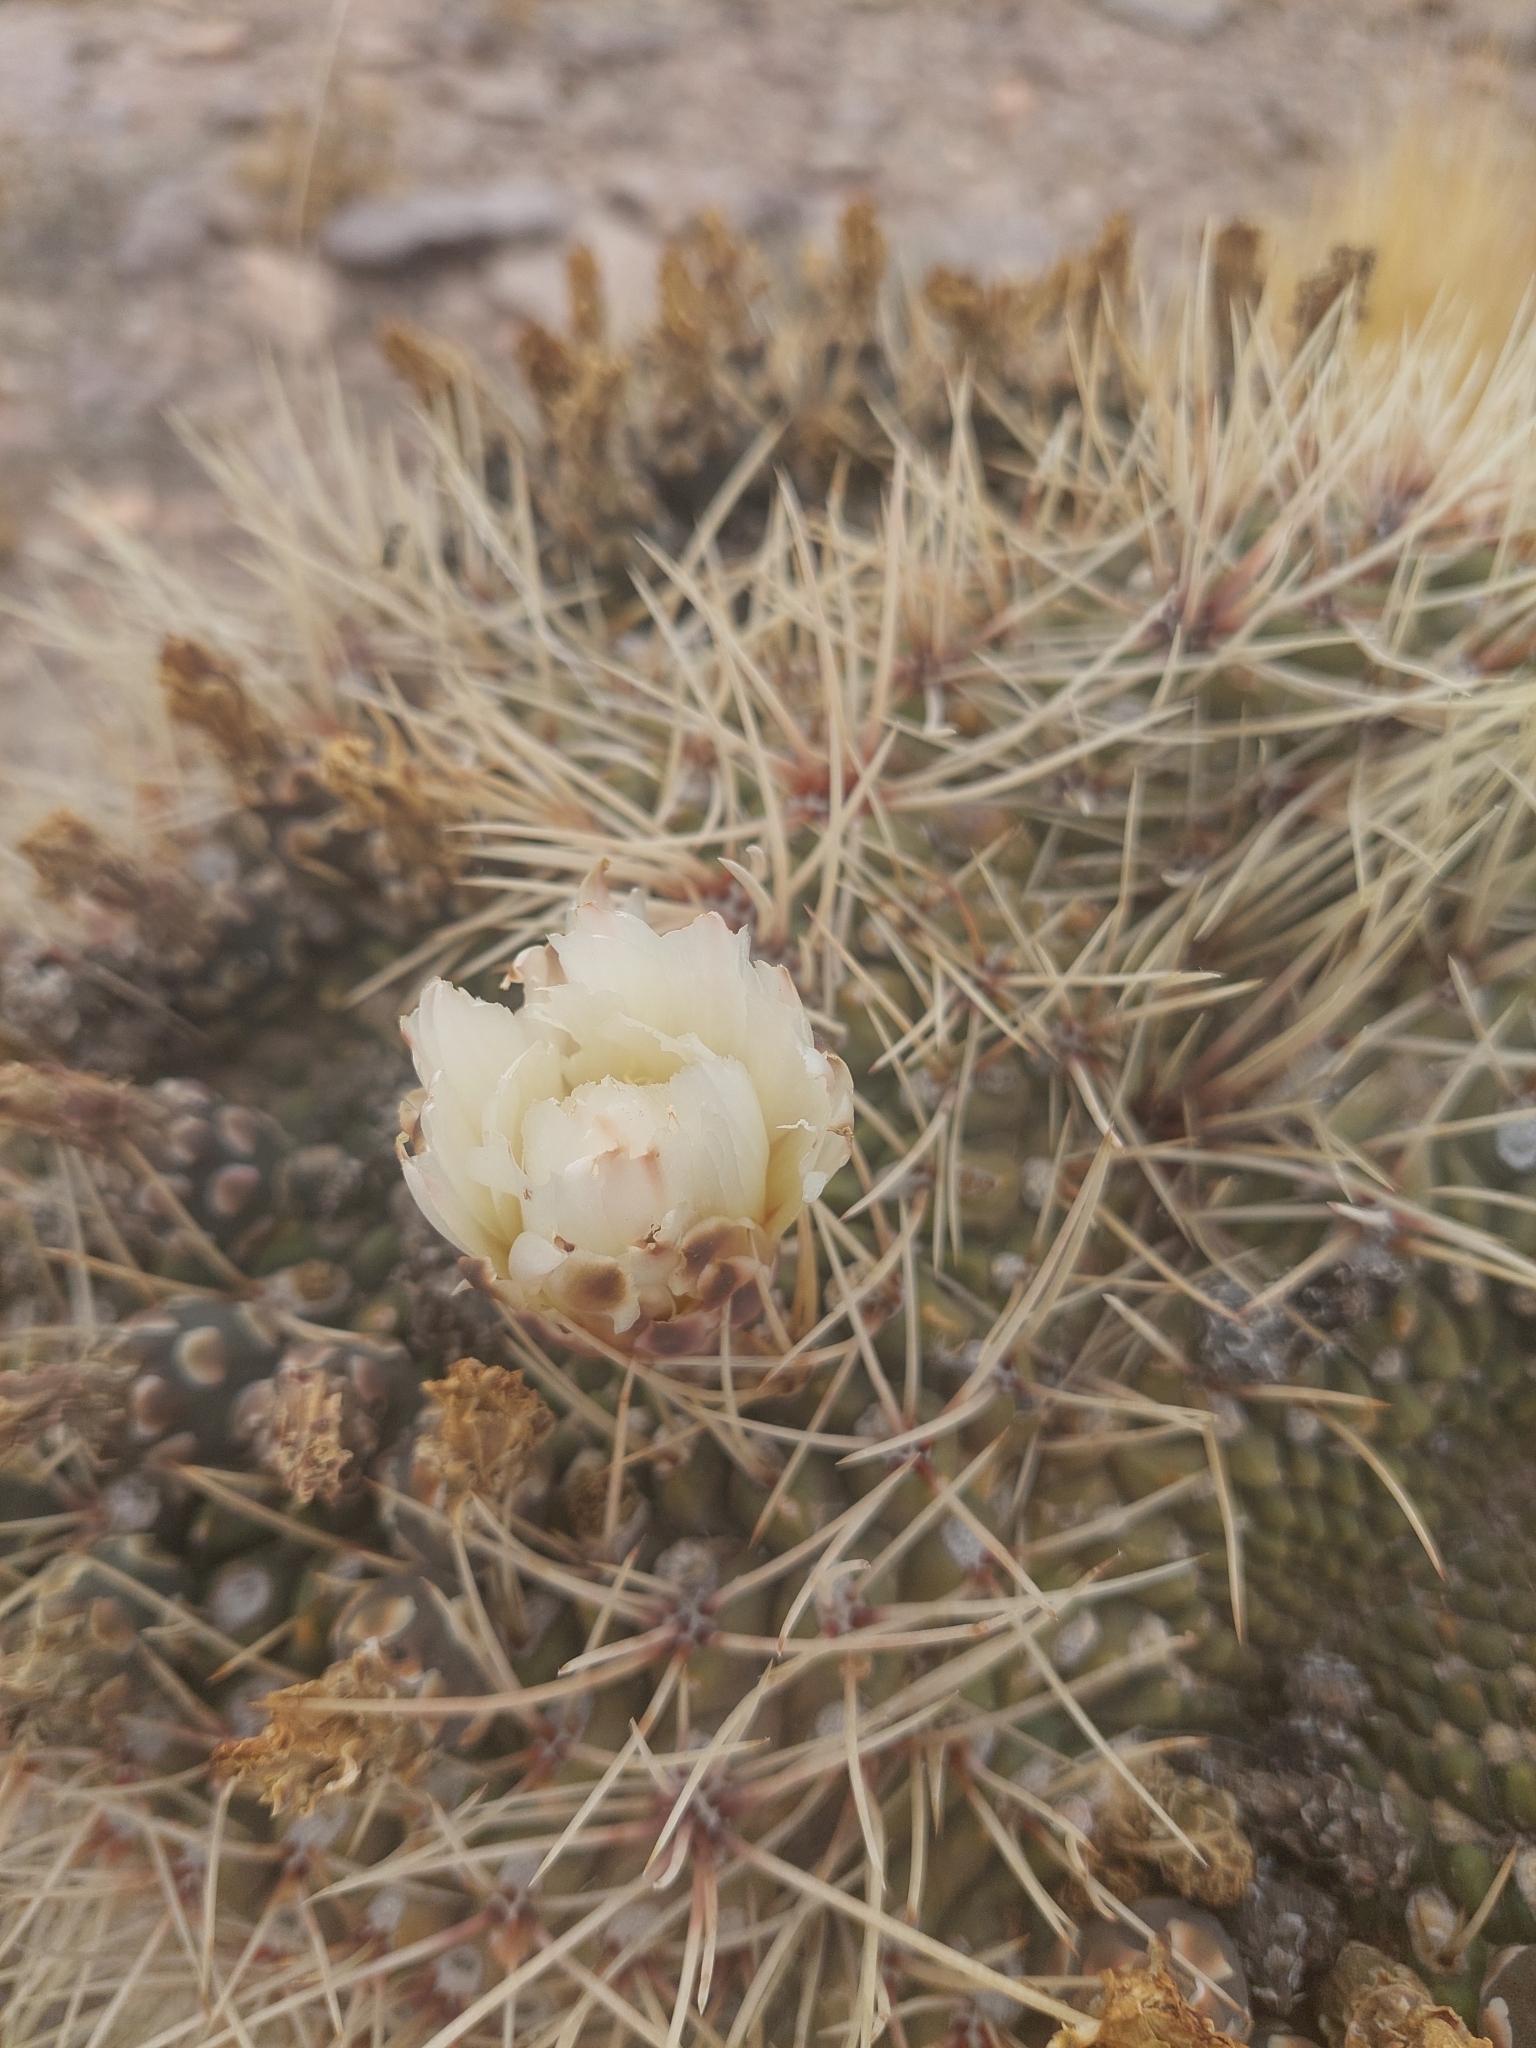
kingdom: Plantae
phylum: Tracheophyta
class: Magnoliopsida
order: Caryophyllales
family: Cactaceae
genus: Gymnocalycium
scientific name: Gymnocalycium gibbosum
